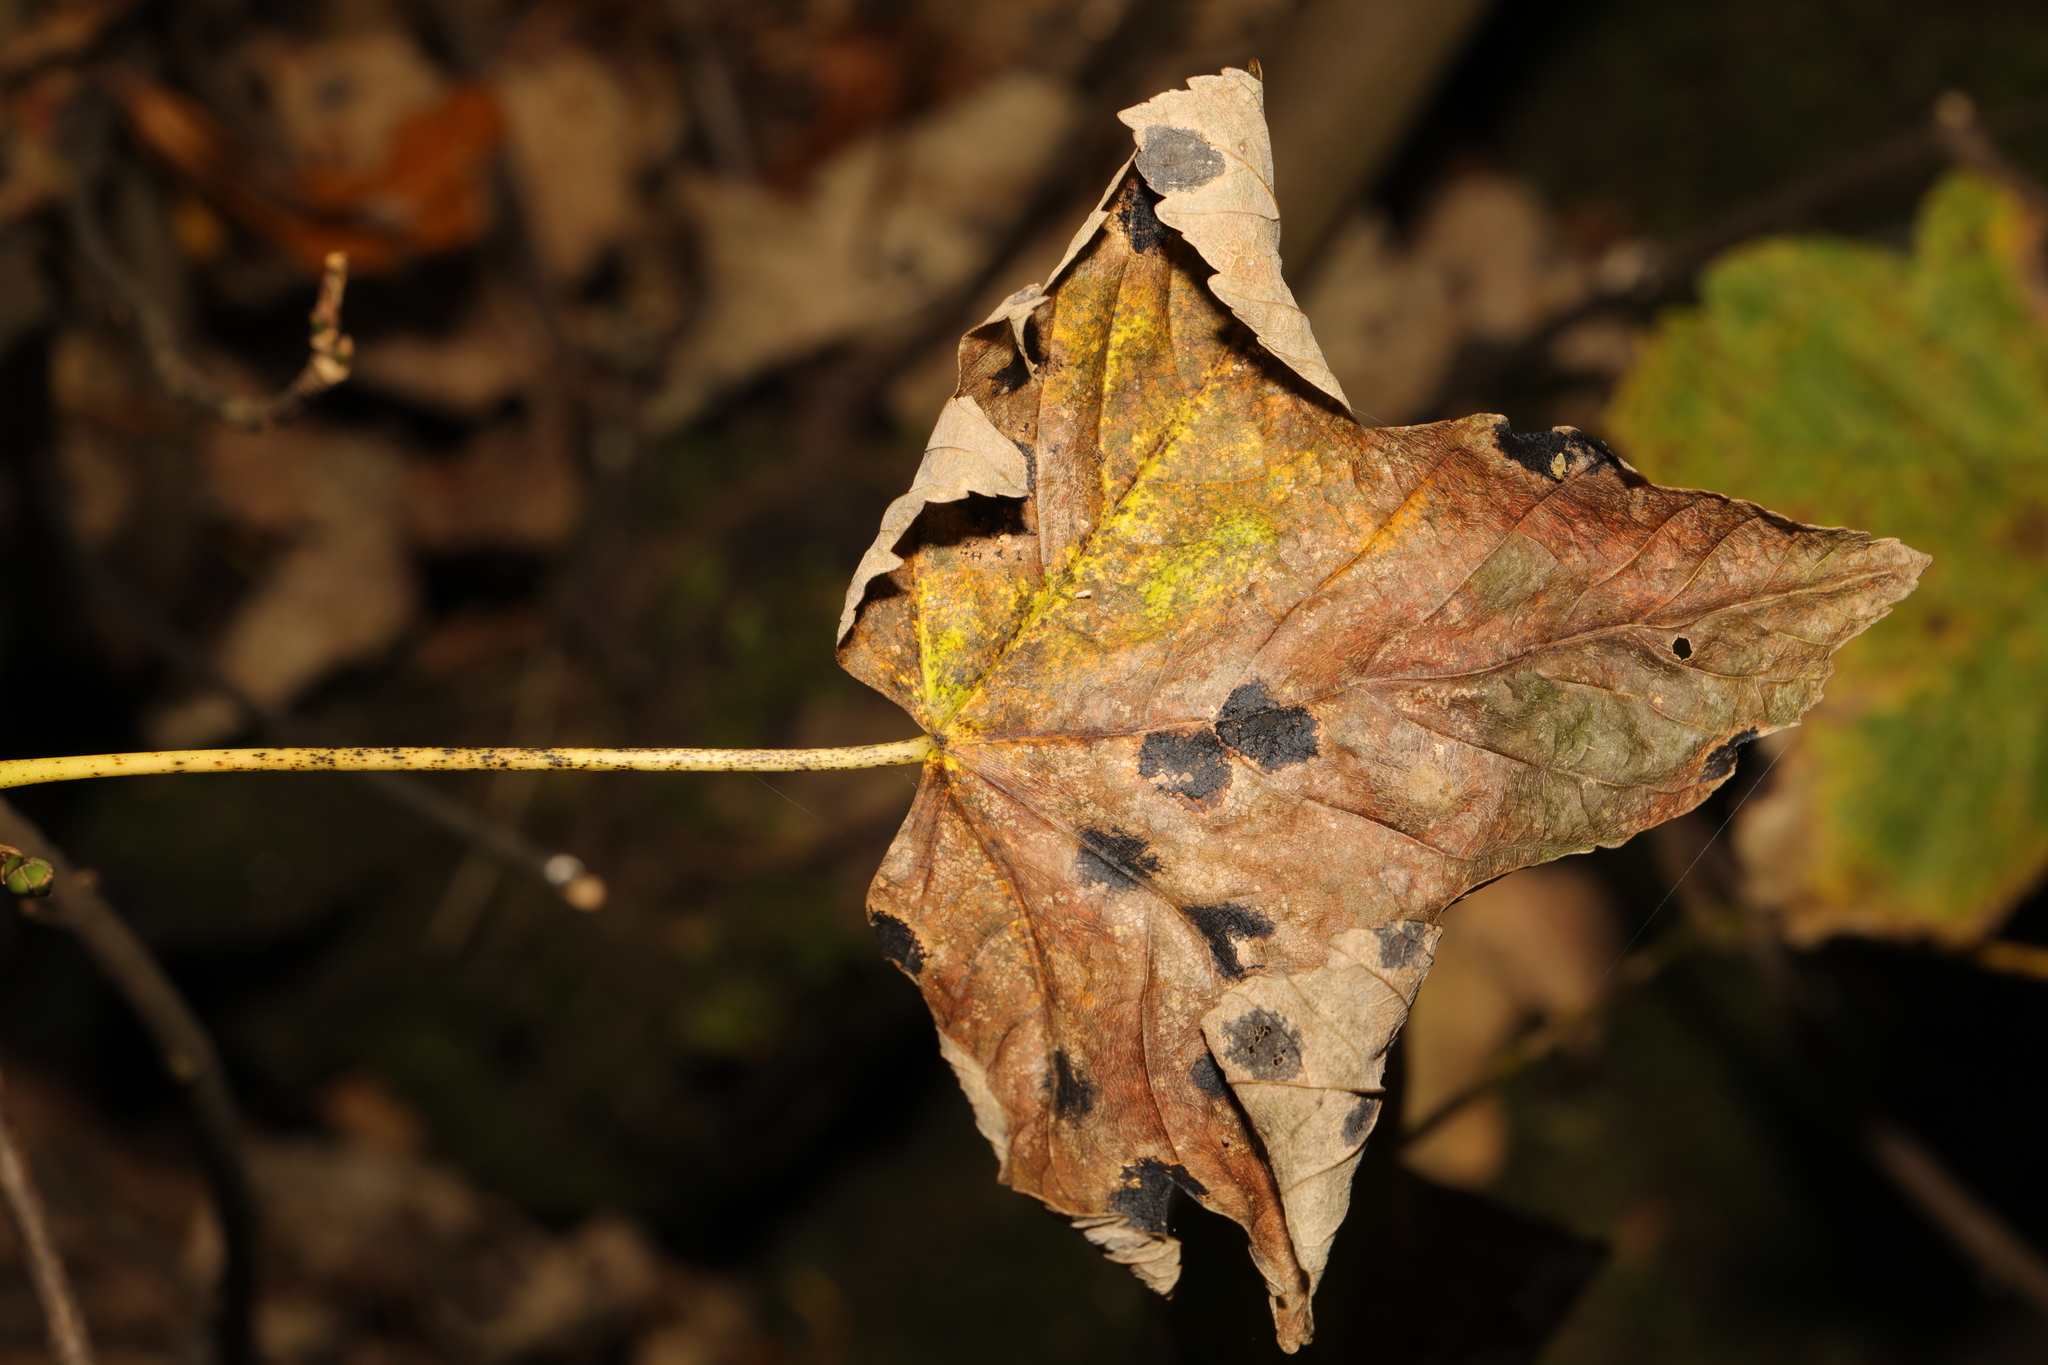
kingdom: Fungi
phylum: Ascomycota
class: Leotiomycetes
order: Rhytismatales
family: Rhytismataceae
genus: Rhytisma
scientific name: Rhytisma acerinum
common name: European tar spot
